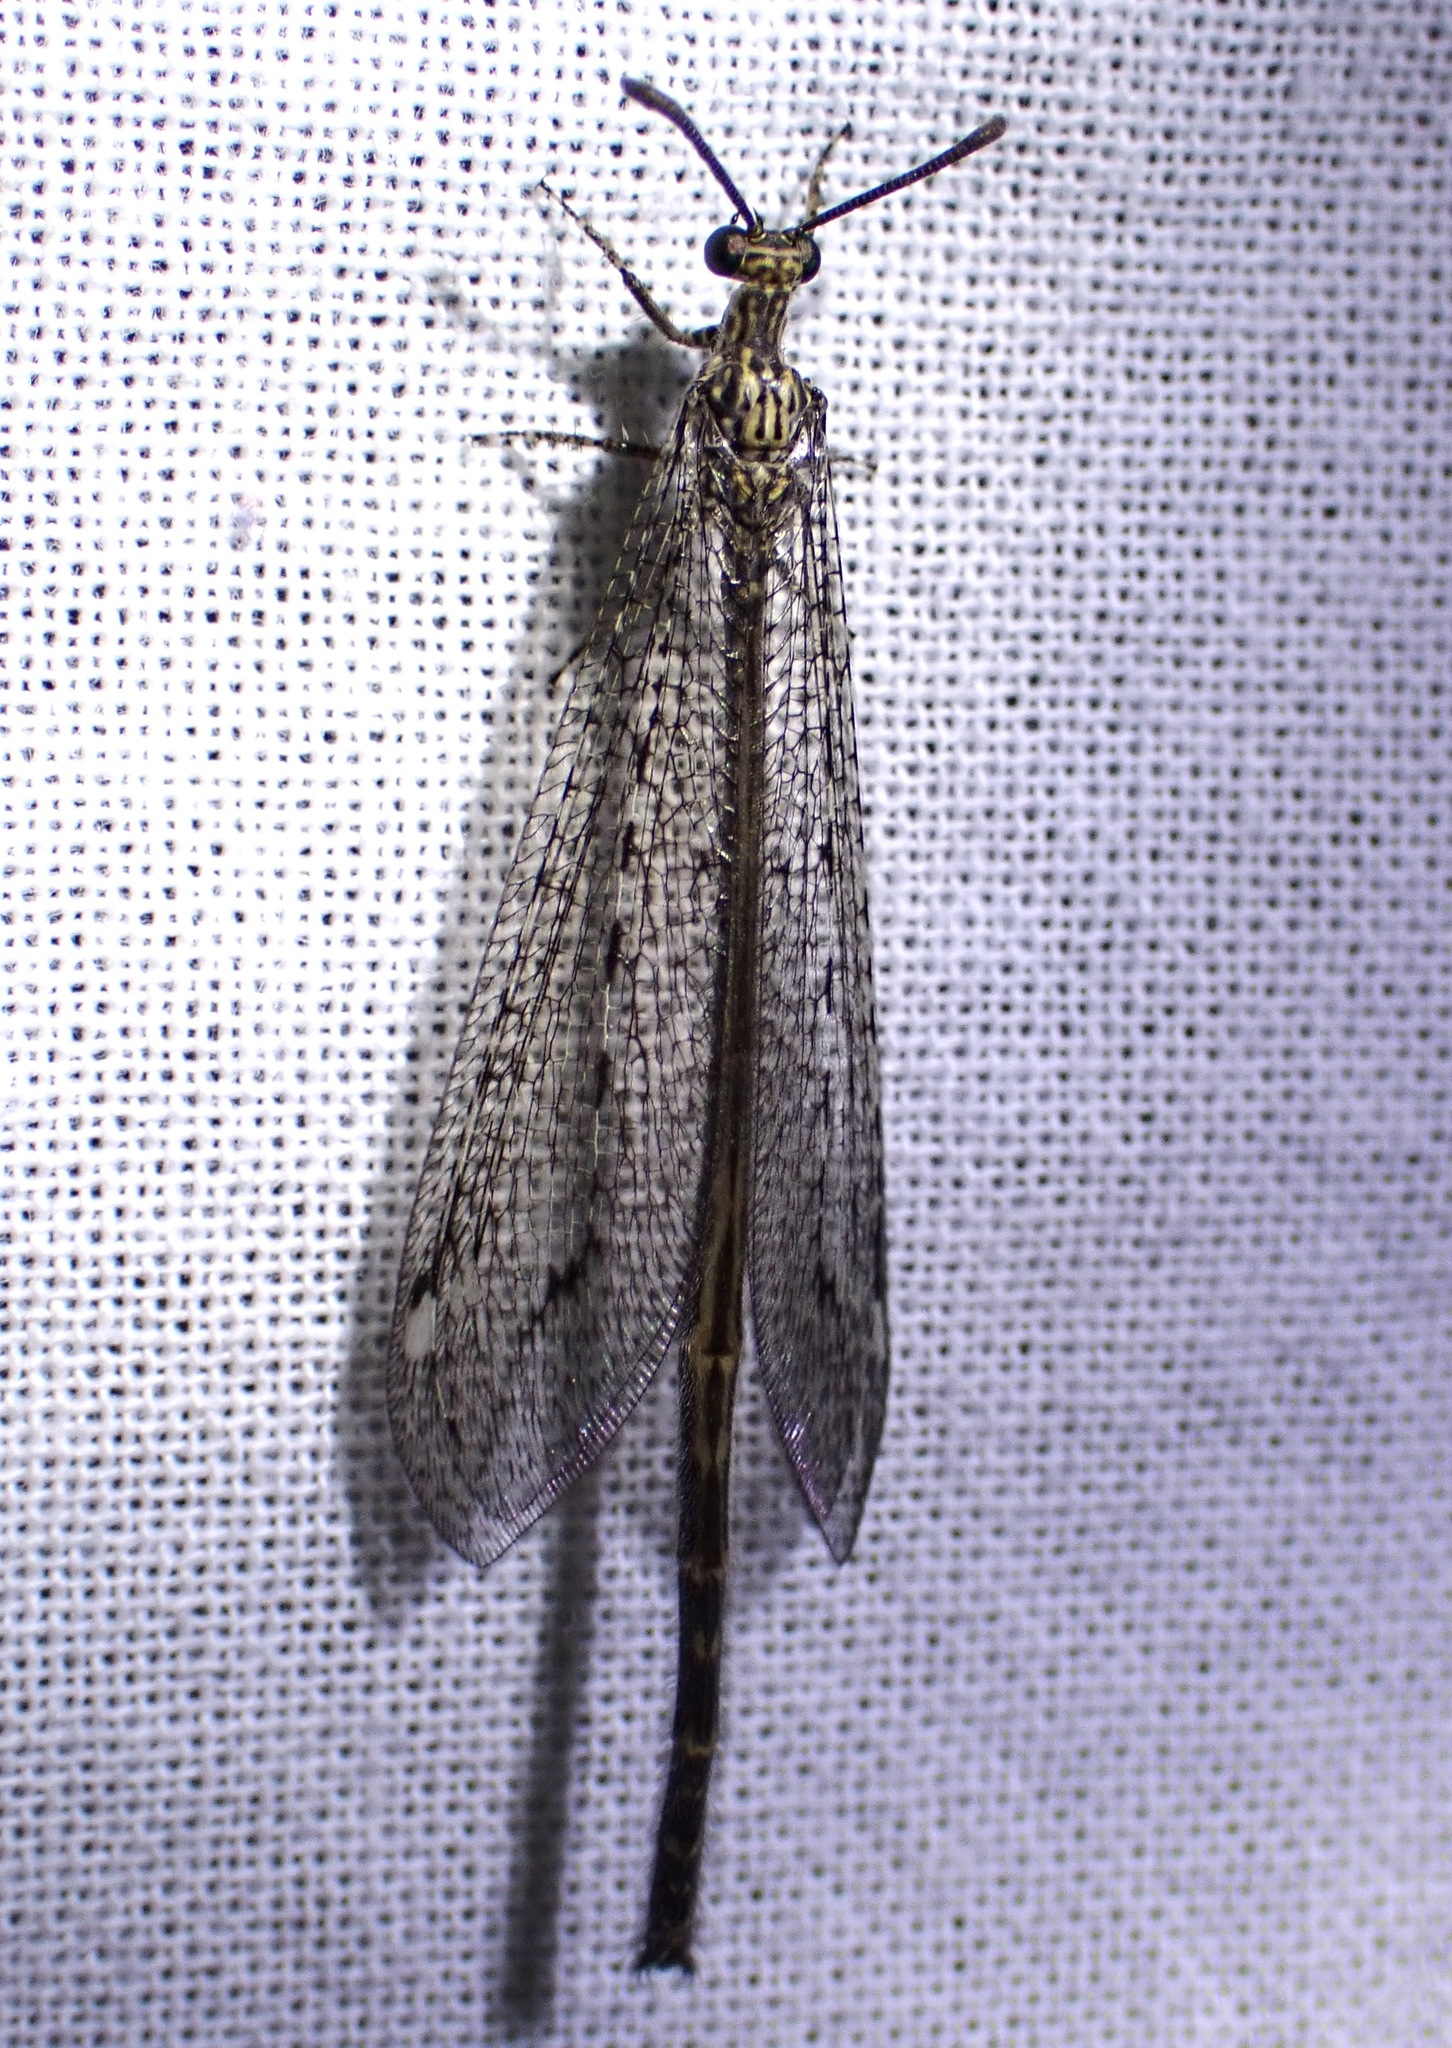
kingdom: Animalia
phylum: Arthropoda
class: Insecta
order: Neuroptera
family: Myrmeleontidae
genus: Mexoleon
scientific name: Mexoleon papago
